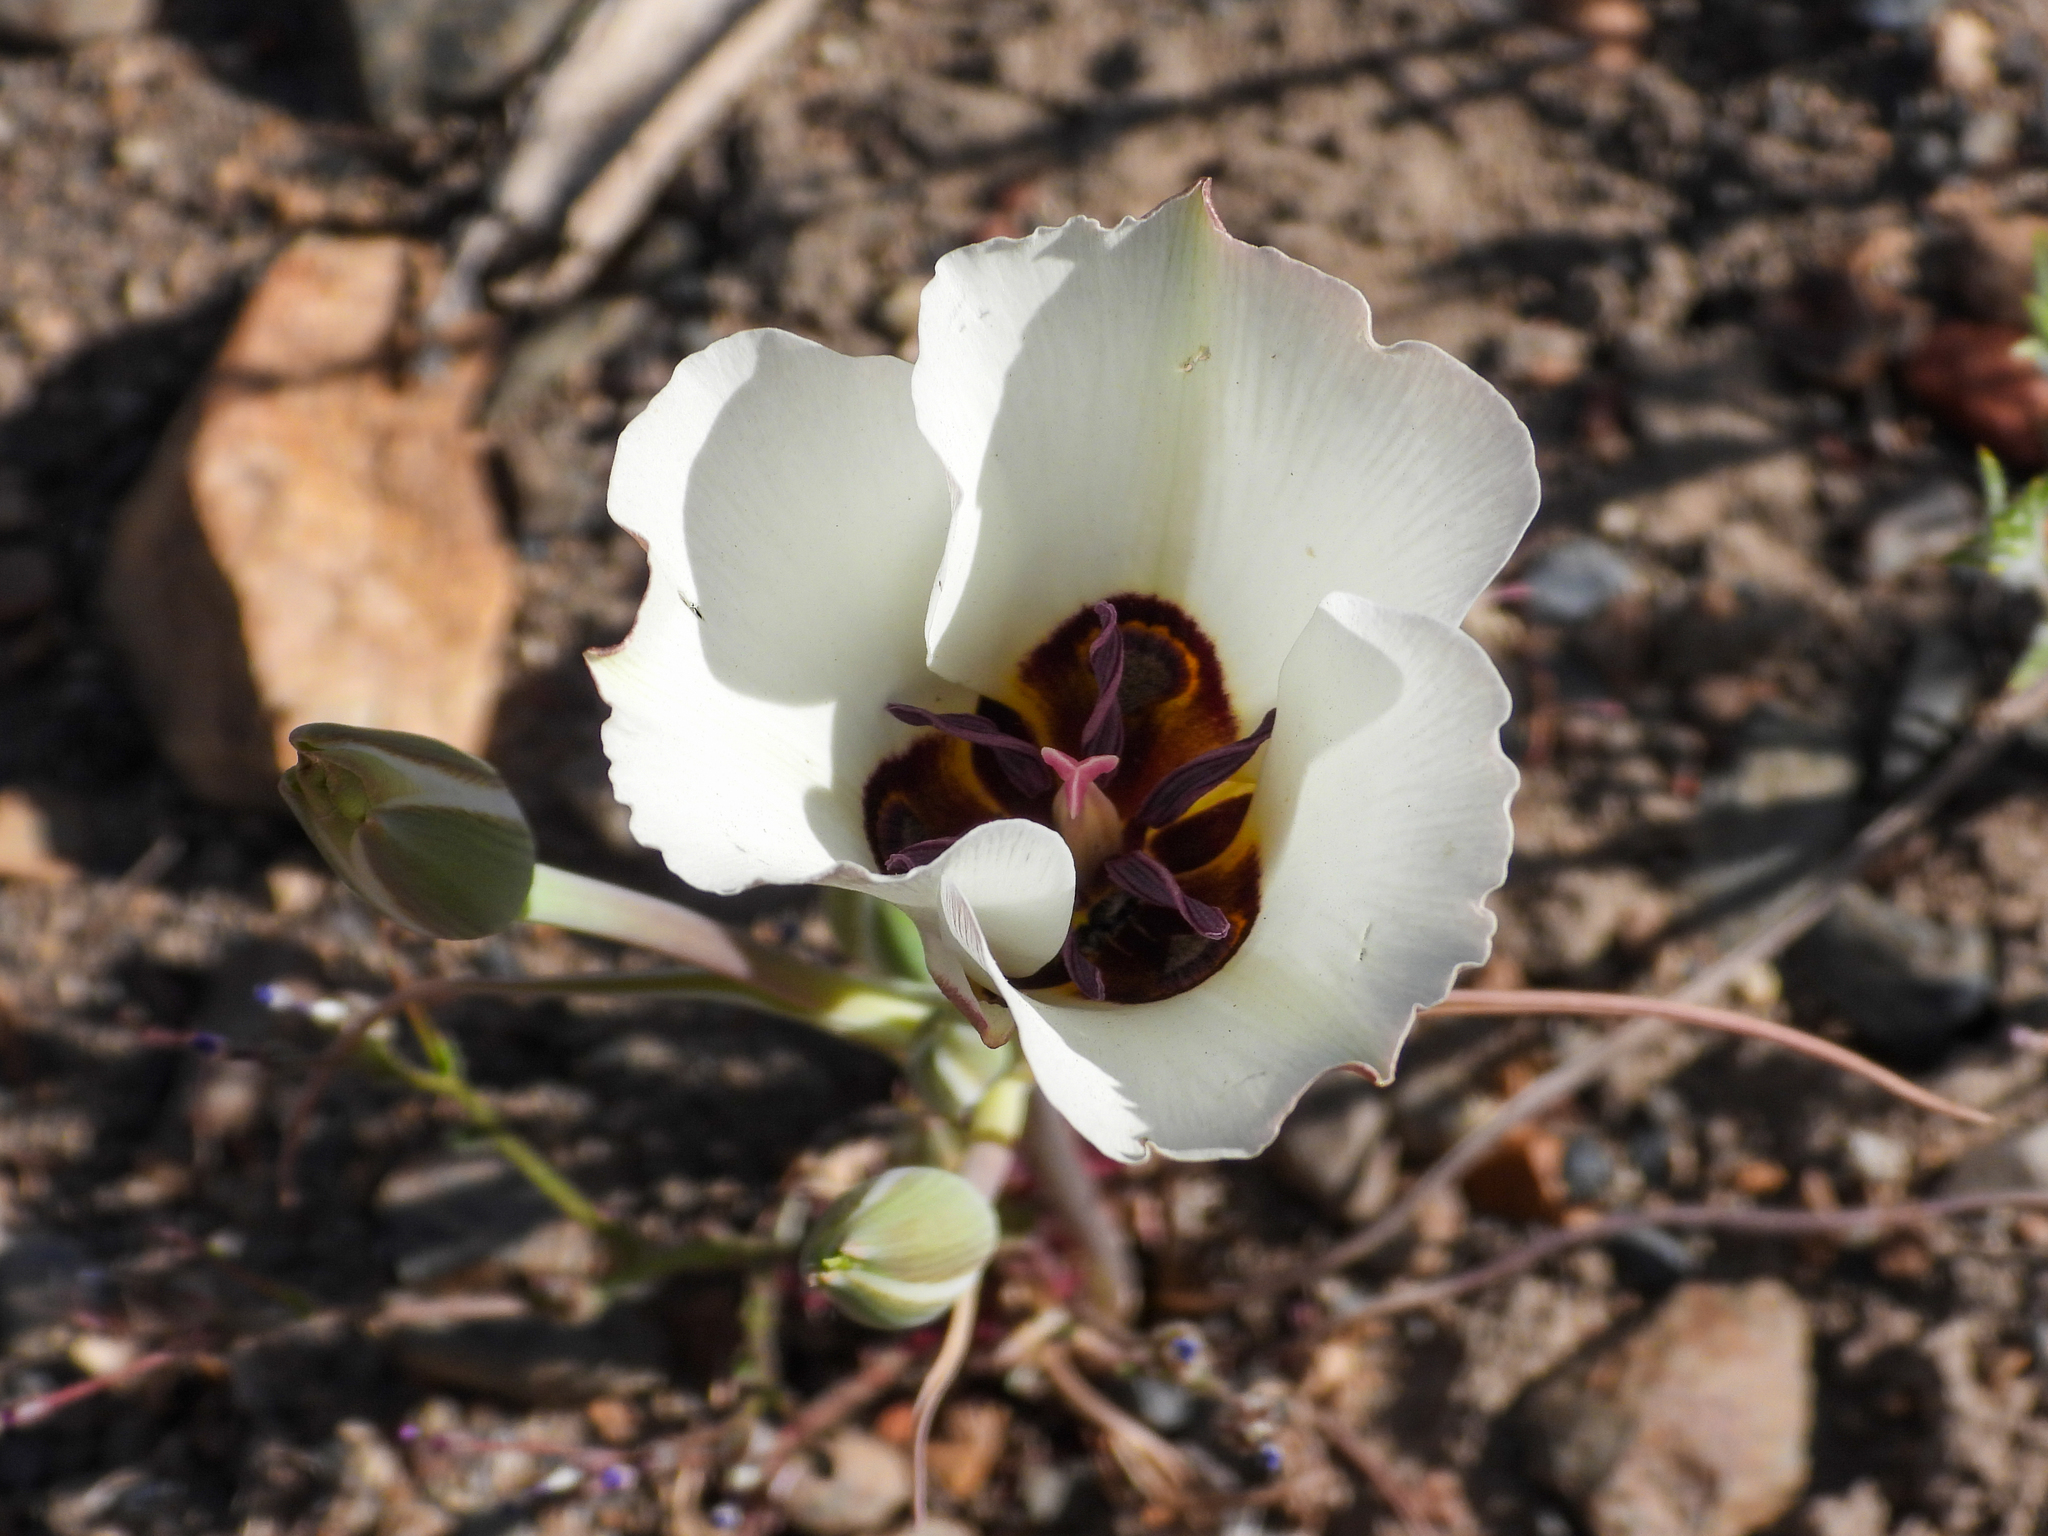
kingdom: Plantae
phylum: Tracheophyta
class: Liliopsida
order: Liliales
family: Liliaceae
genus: Calochortus
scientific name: Calochortus bruneaunis
